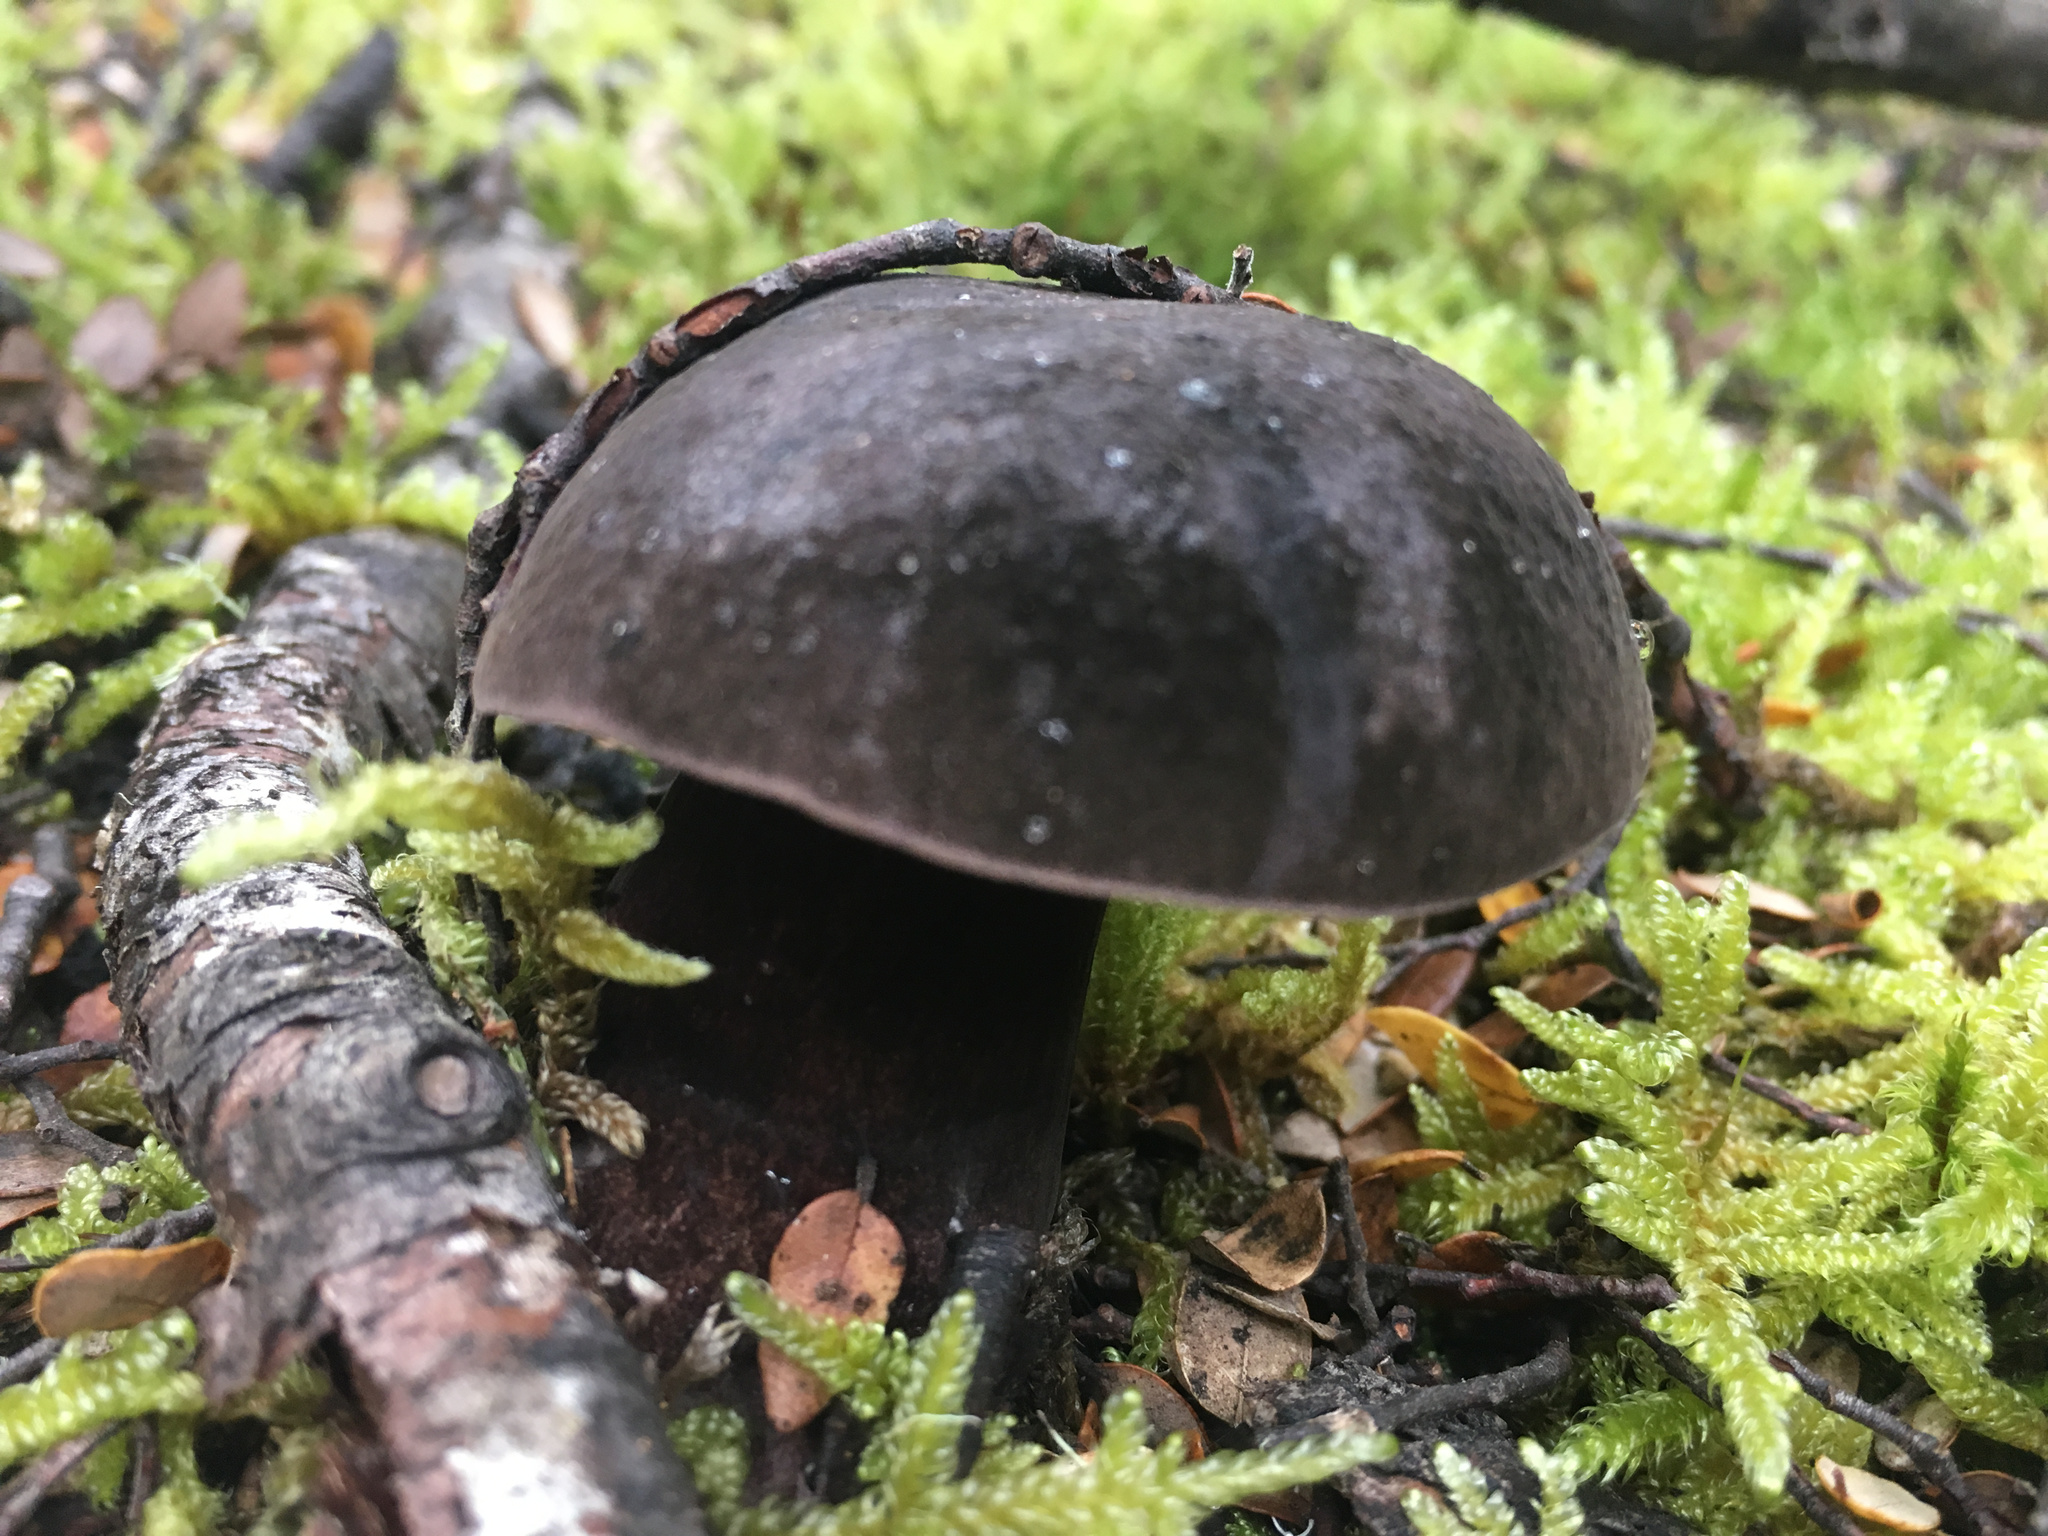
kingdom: Fungi
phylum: Basidiomycota
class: Agaricomycetes
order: Boletales
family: Boletaceae
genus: Porphyrellus
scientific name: Porphyrellus formosus
